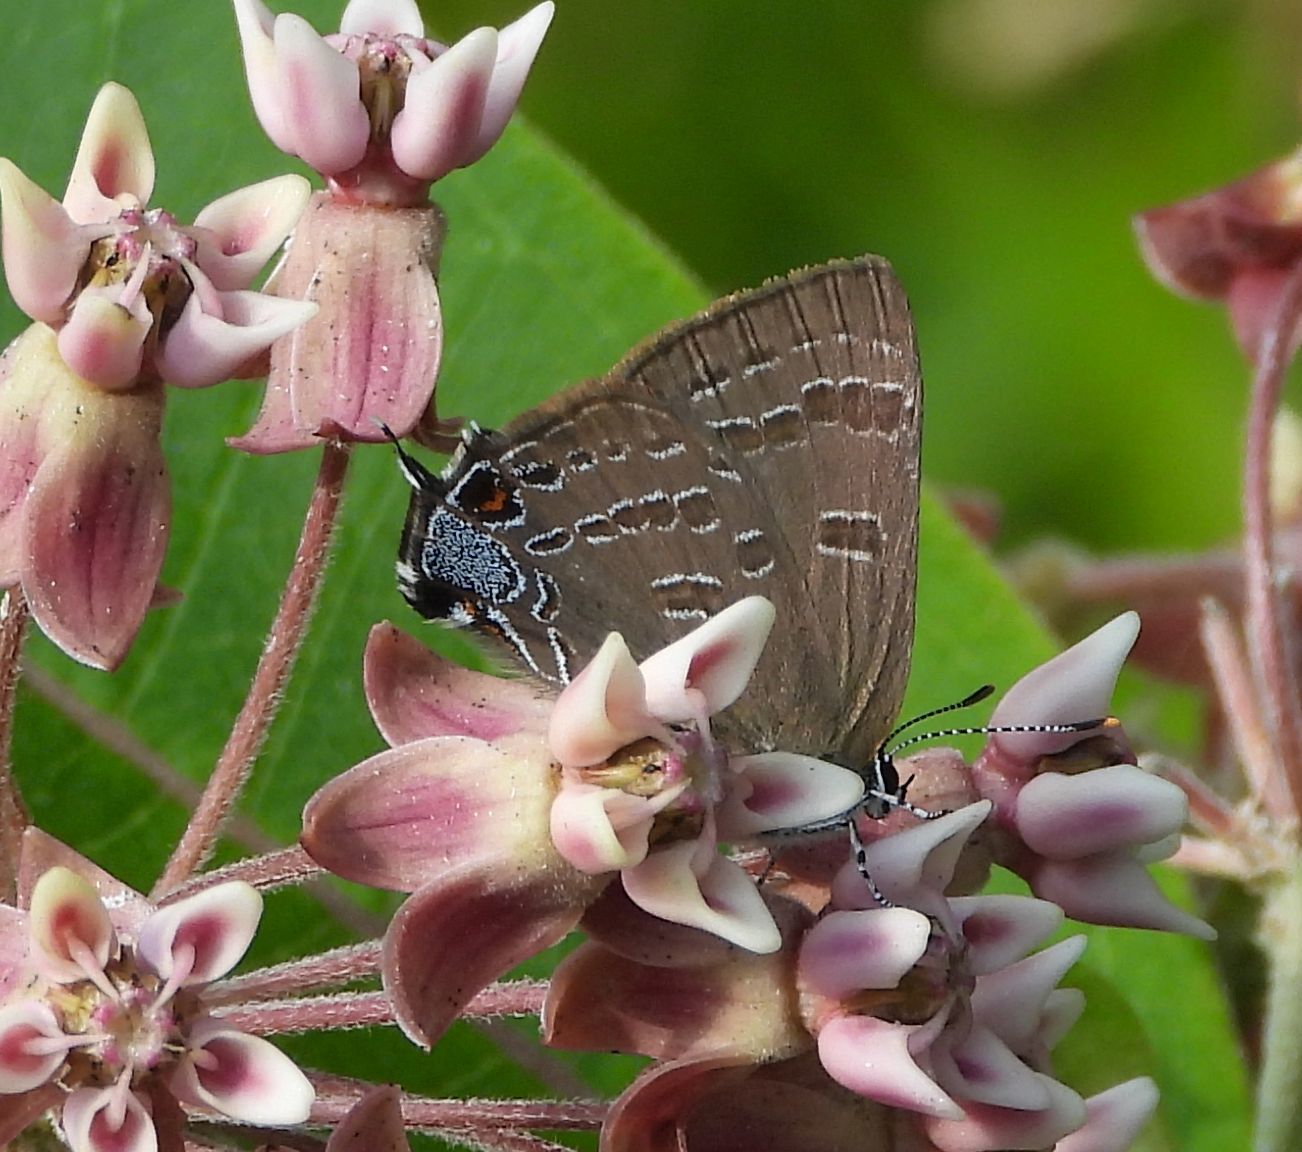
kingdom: Animalia
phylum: Arthropoda
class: Insecta
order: Lepidoptera
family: Lycaenidae
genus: Strymon
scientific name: Strymon caryaevorus
